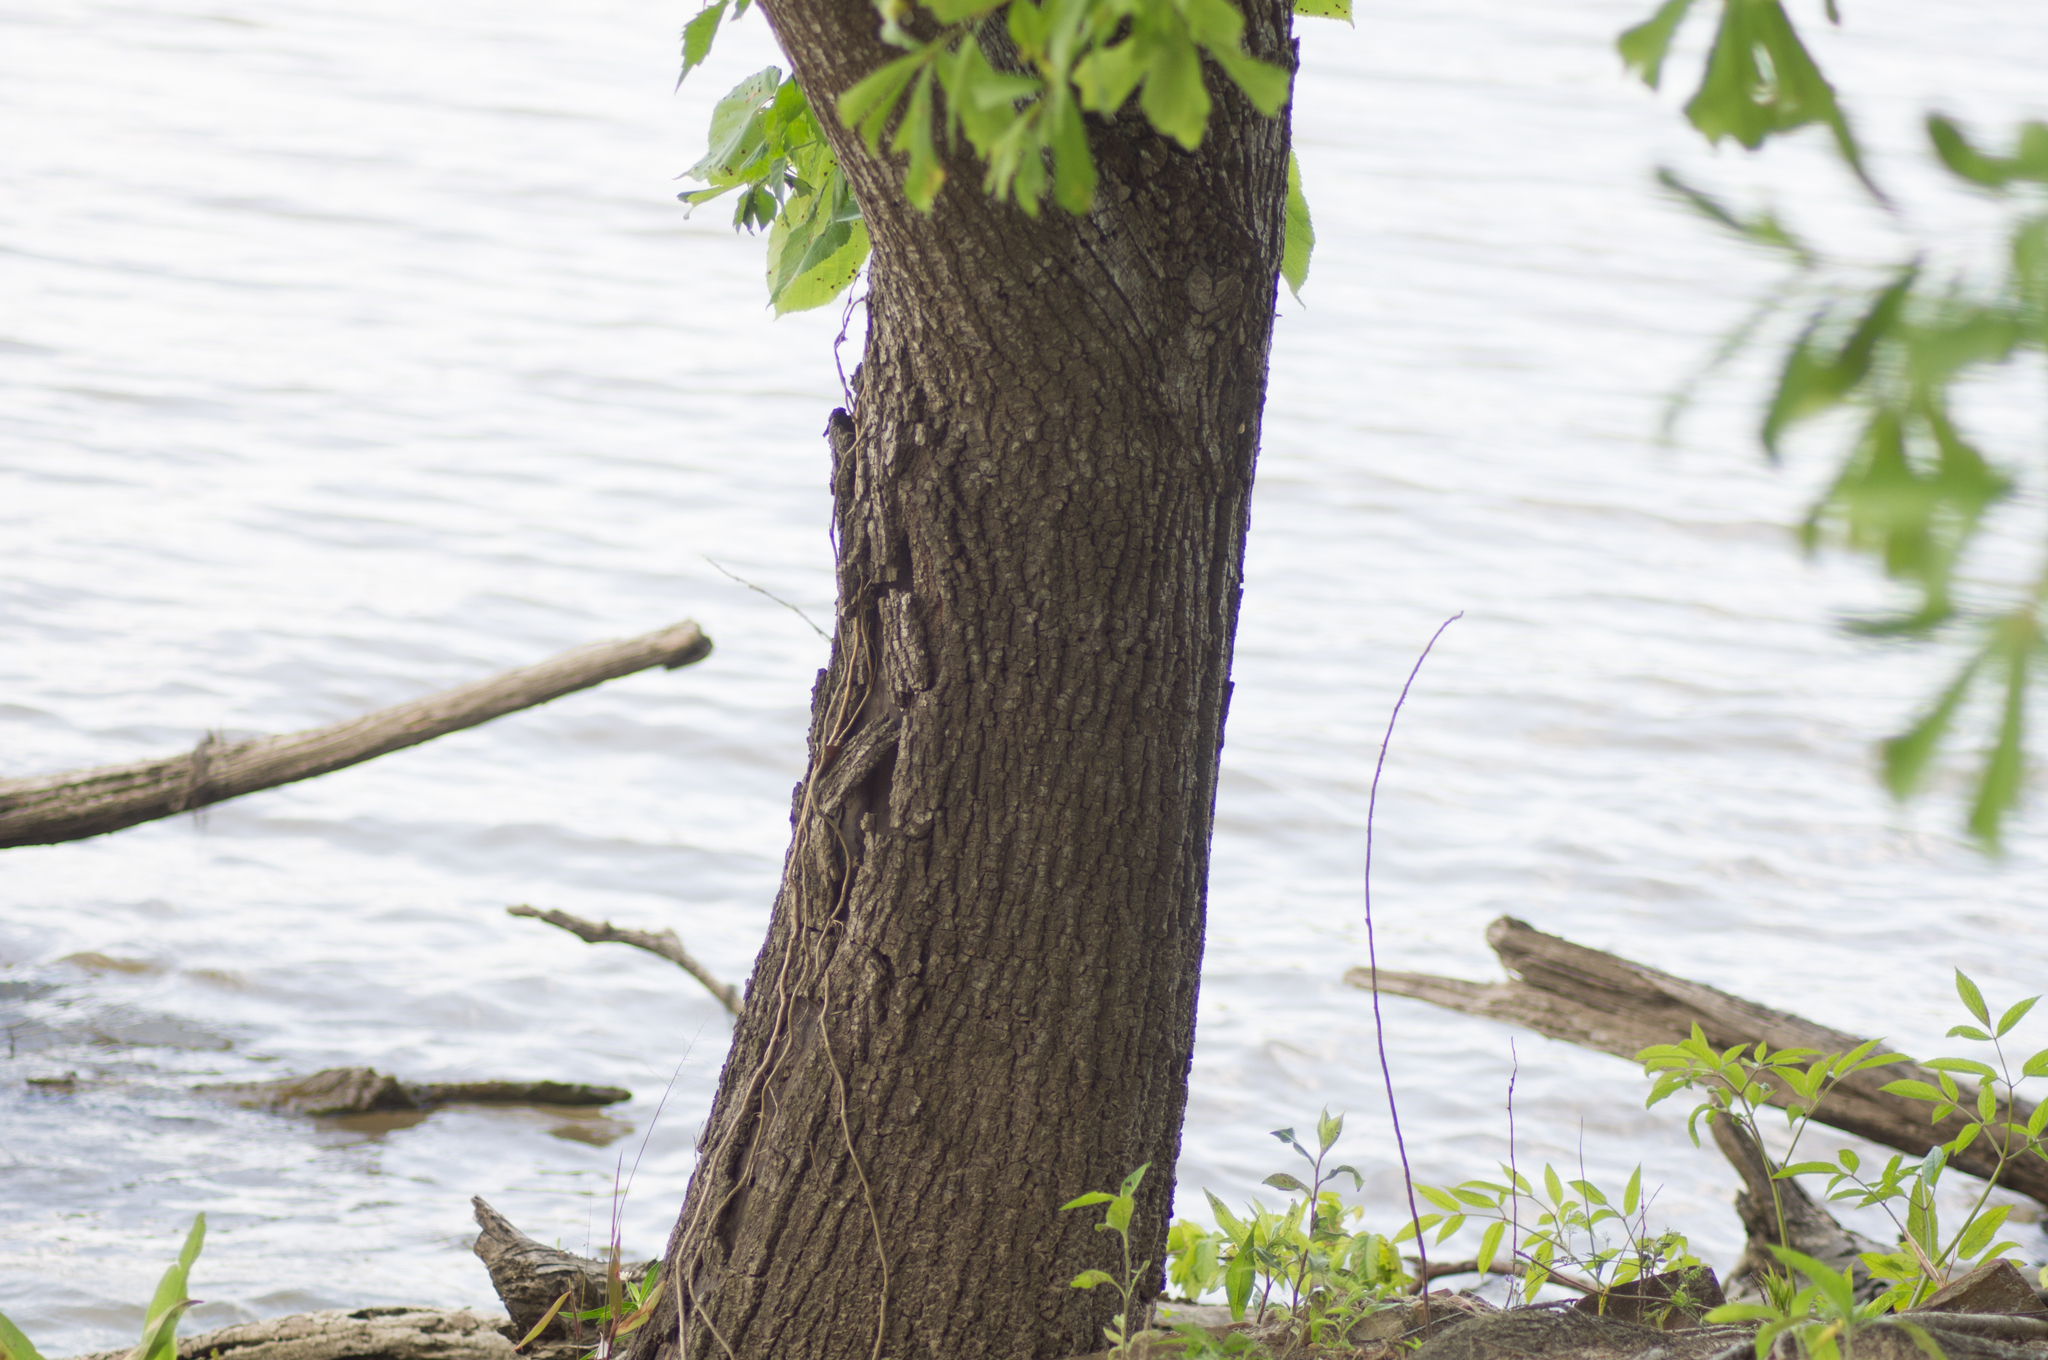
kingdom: Plantae
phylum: Tracheophyta
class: Magnoliopsida
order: Malvales
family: Malvaceae
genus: Tilia
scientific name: Tilia americana
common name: Basswood
